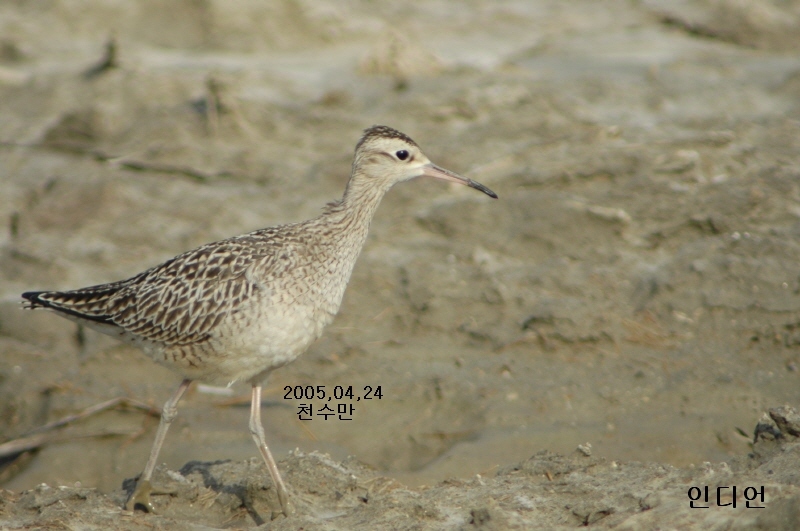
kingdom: Animalia
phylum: Chordata
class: Aves
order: Charadriiformes
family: Scolopacidae
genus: Numenius
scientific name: Numenius minutus
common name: Little curlew
